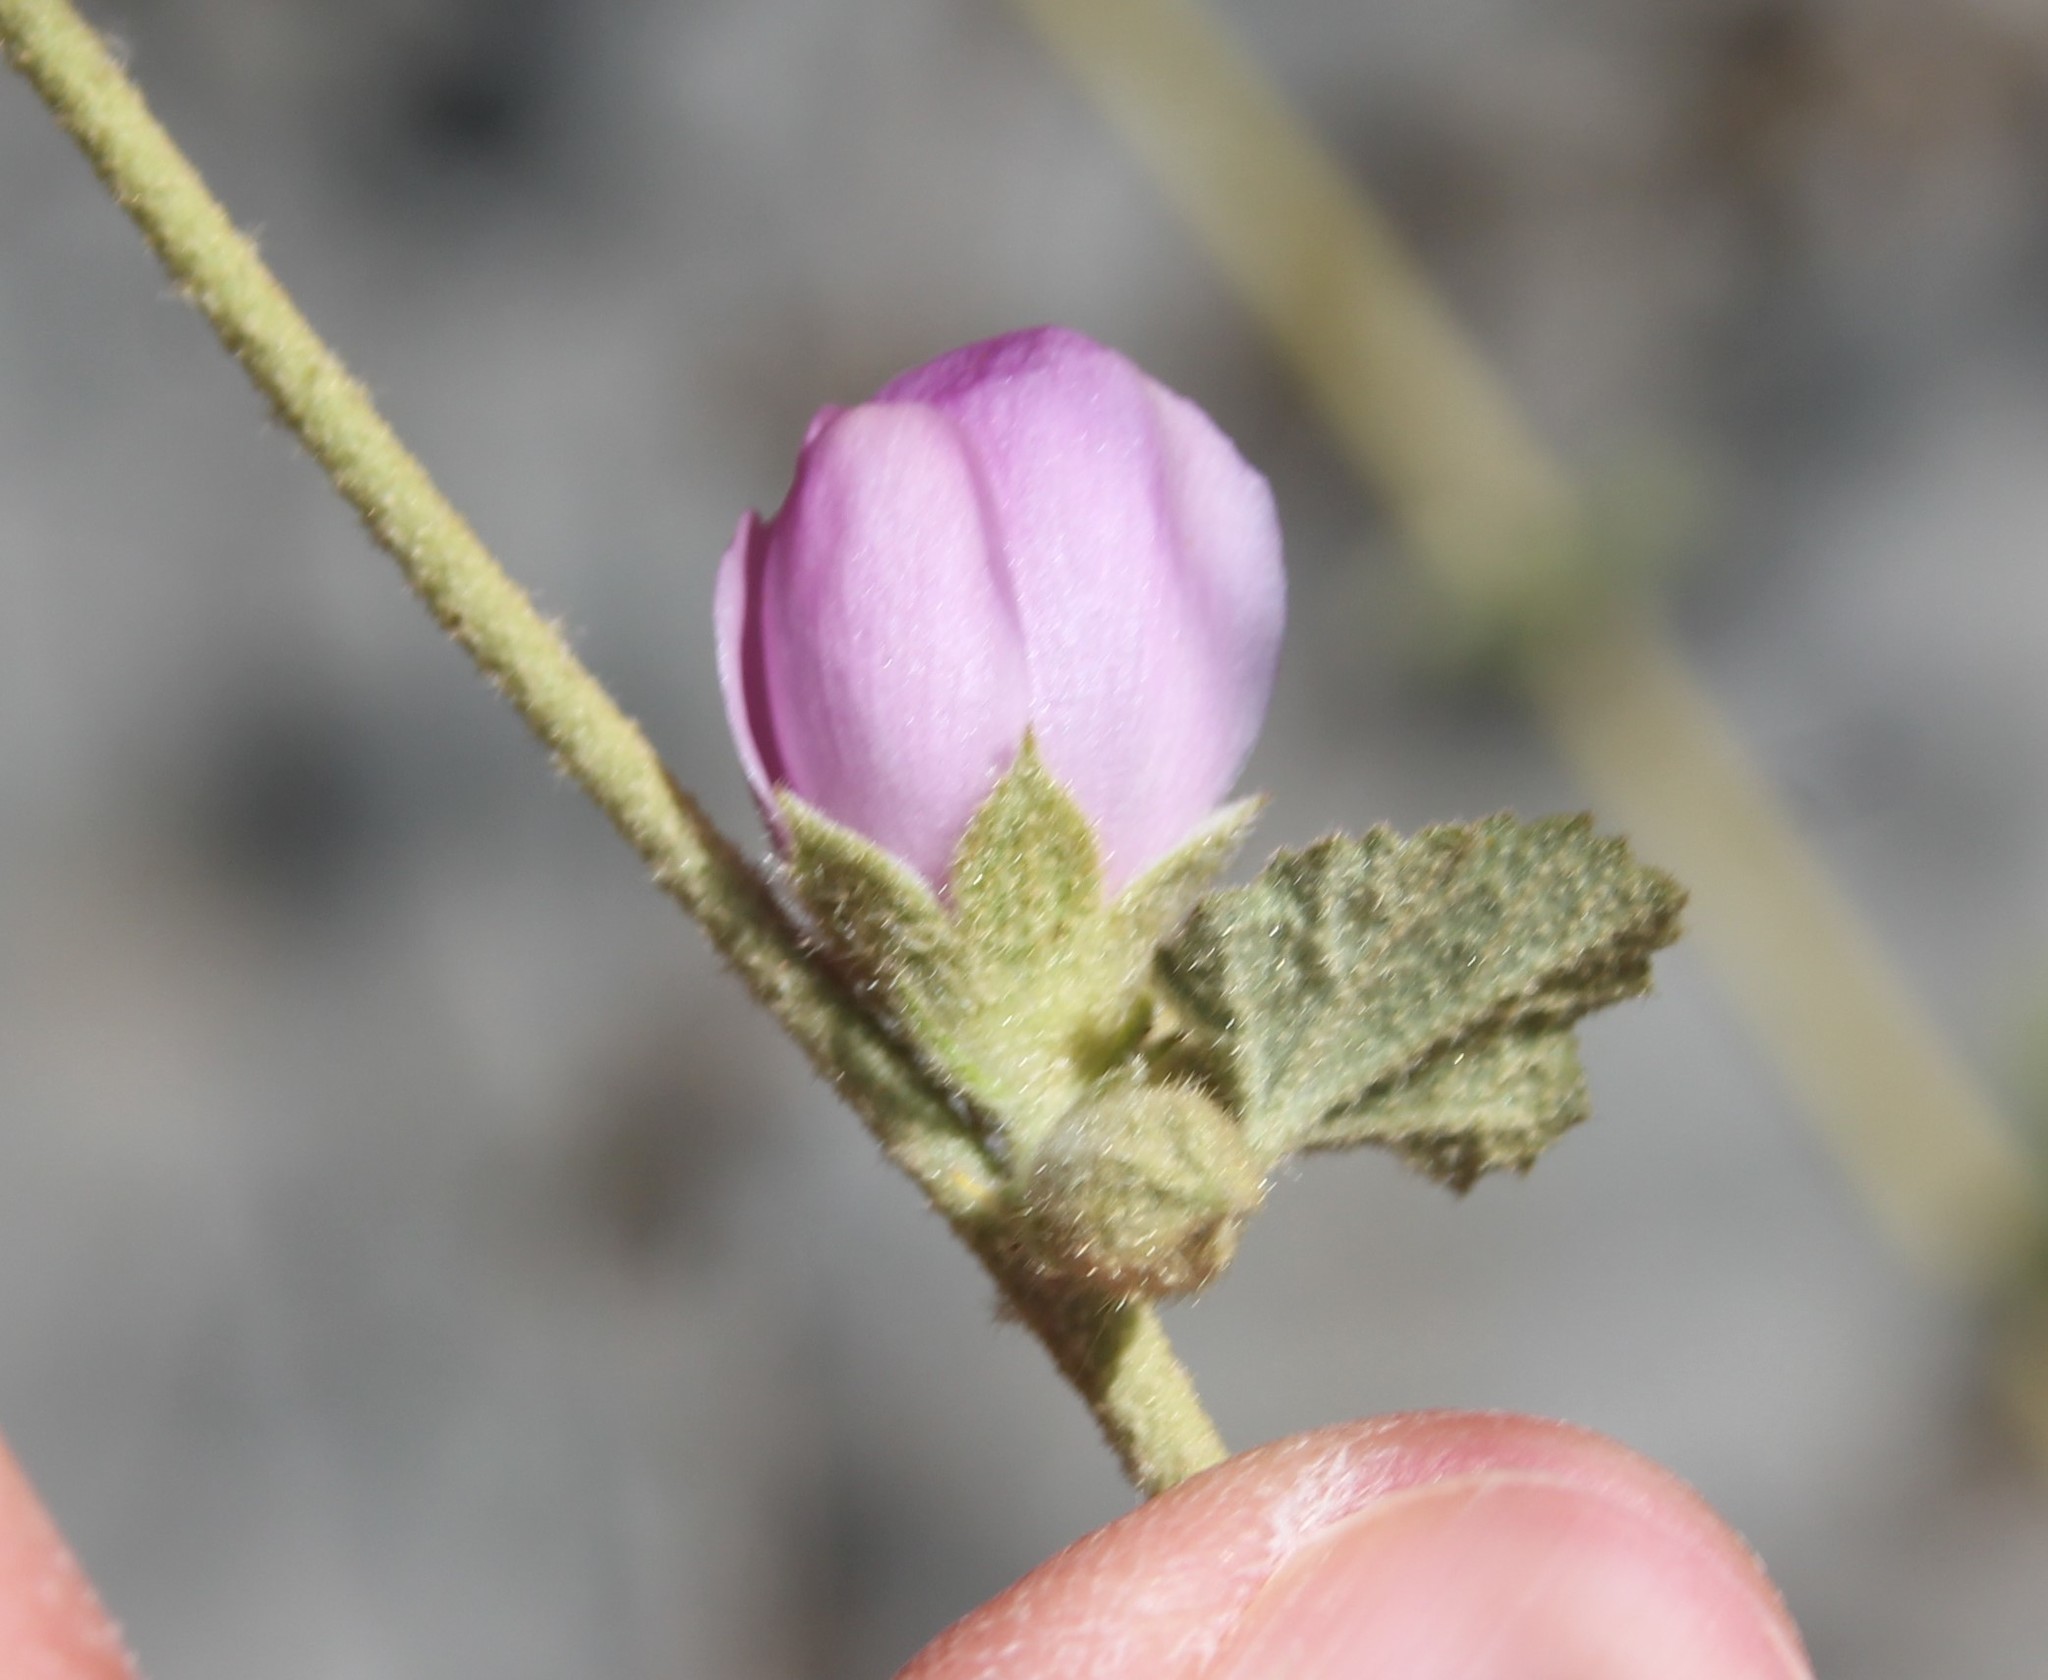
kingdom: Plantae
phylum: Tracheophyta
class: Magnoliopsida
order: Malvales
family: Malvaceae
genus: Malacothamnus
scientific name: Malacothamnus fasciculatus
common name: Sant cruz island bush-mallow
